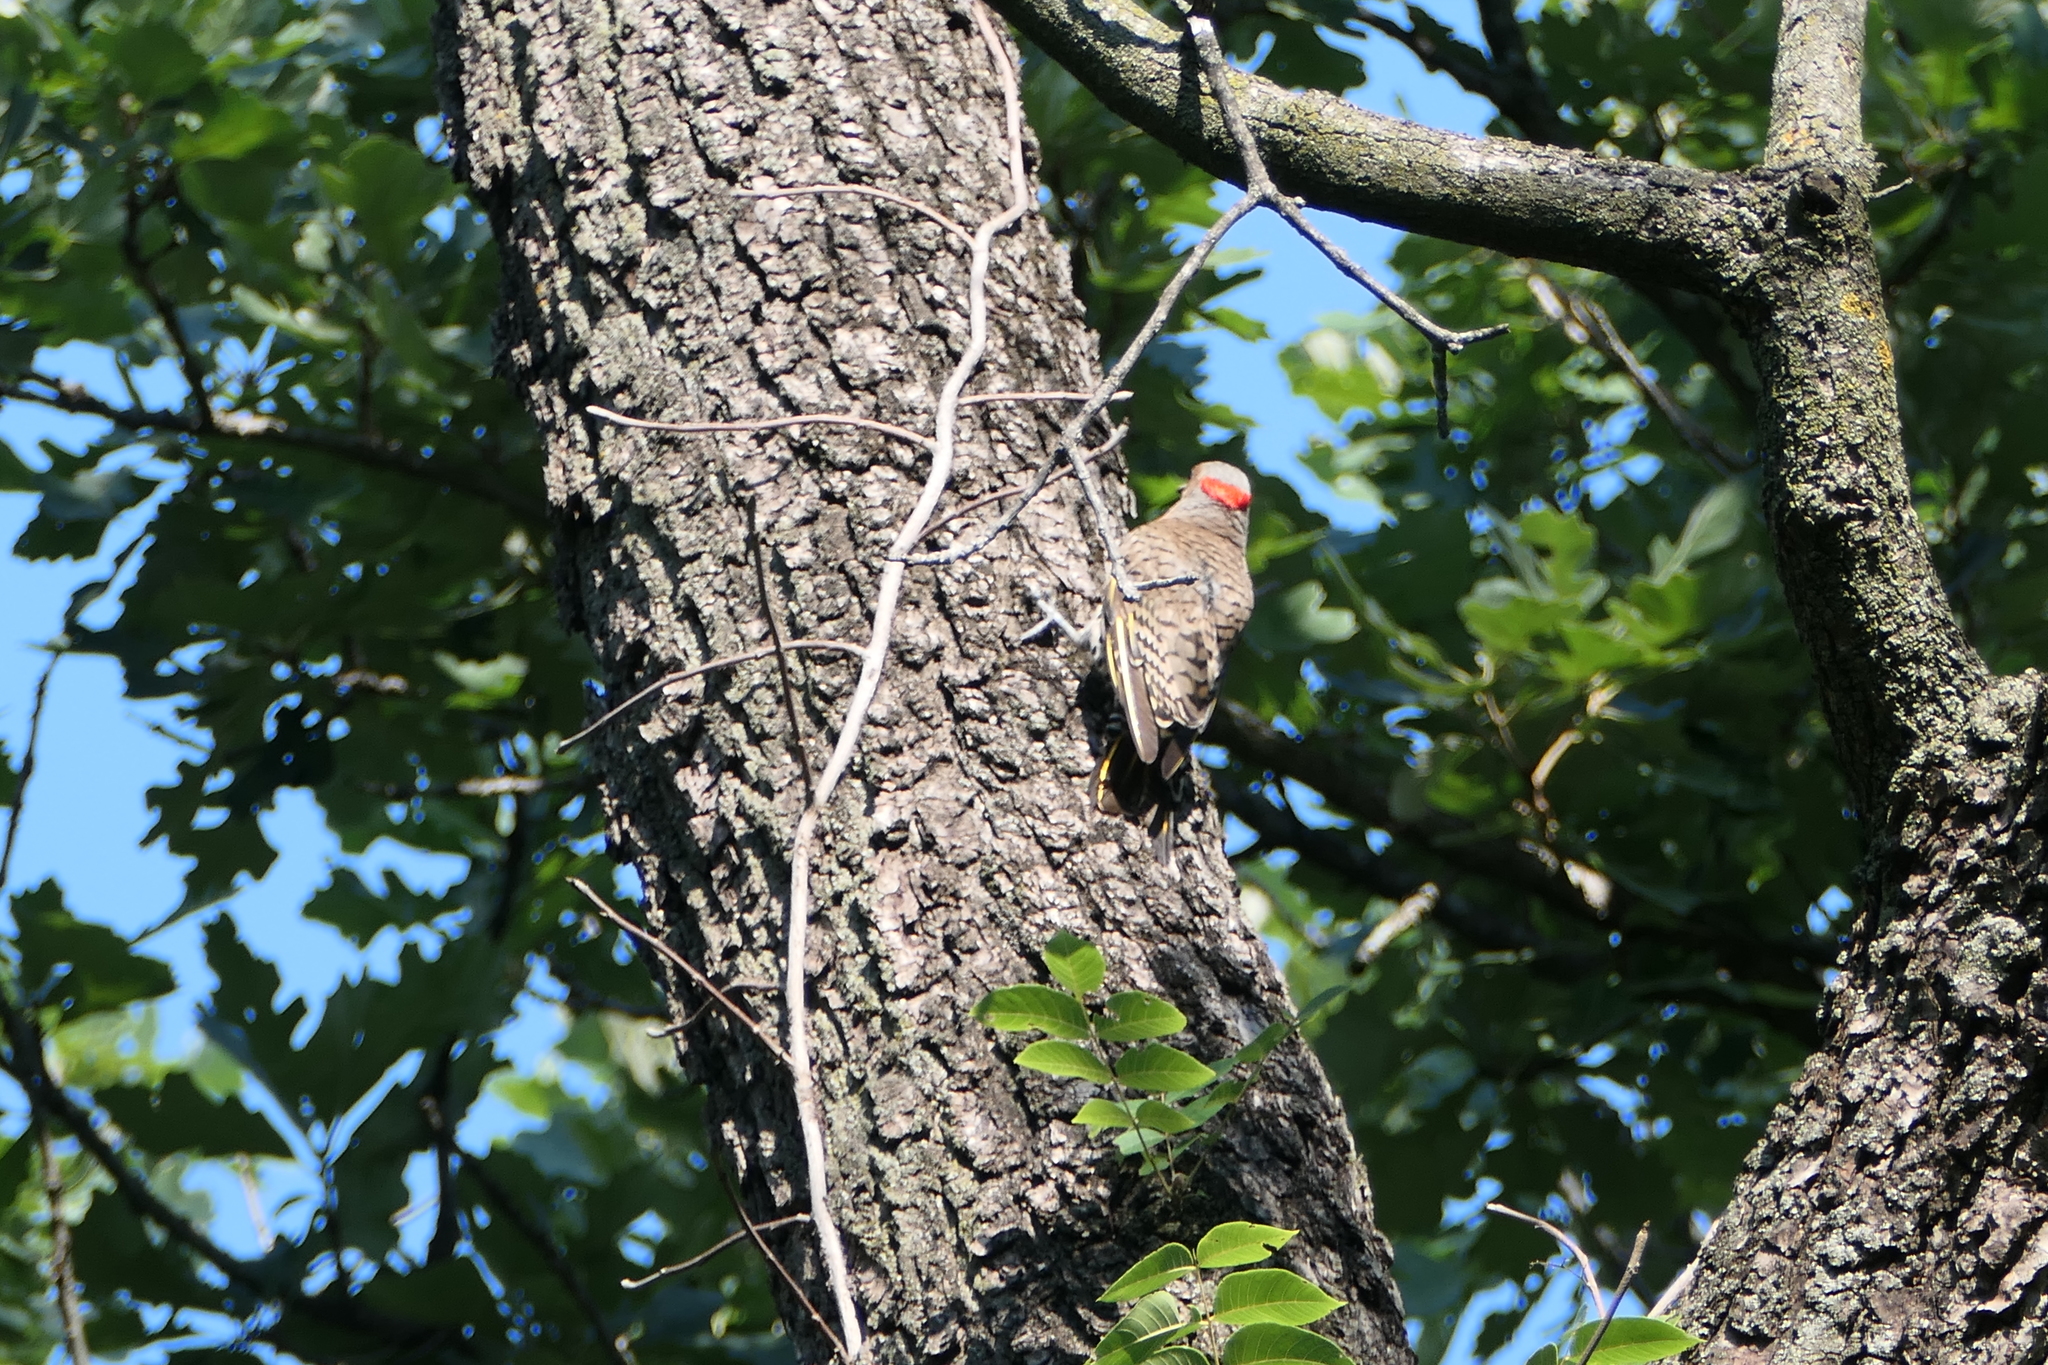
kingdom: Animalia
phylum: Chordata
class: Aves
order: Piciformes
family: Picidae
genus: Colaptes
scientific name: Colaptes auratus
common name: Northern flicker
